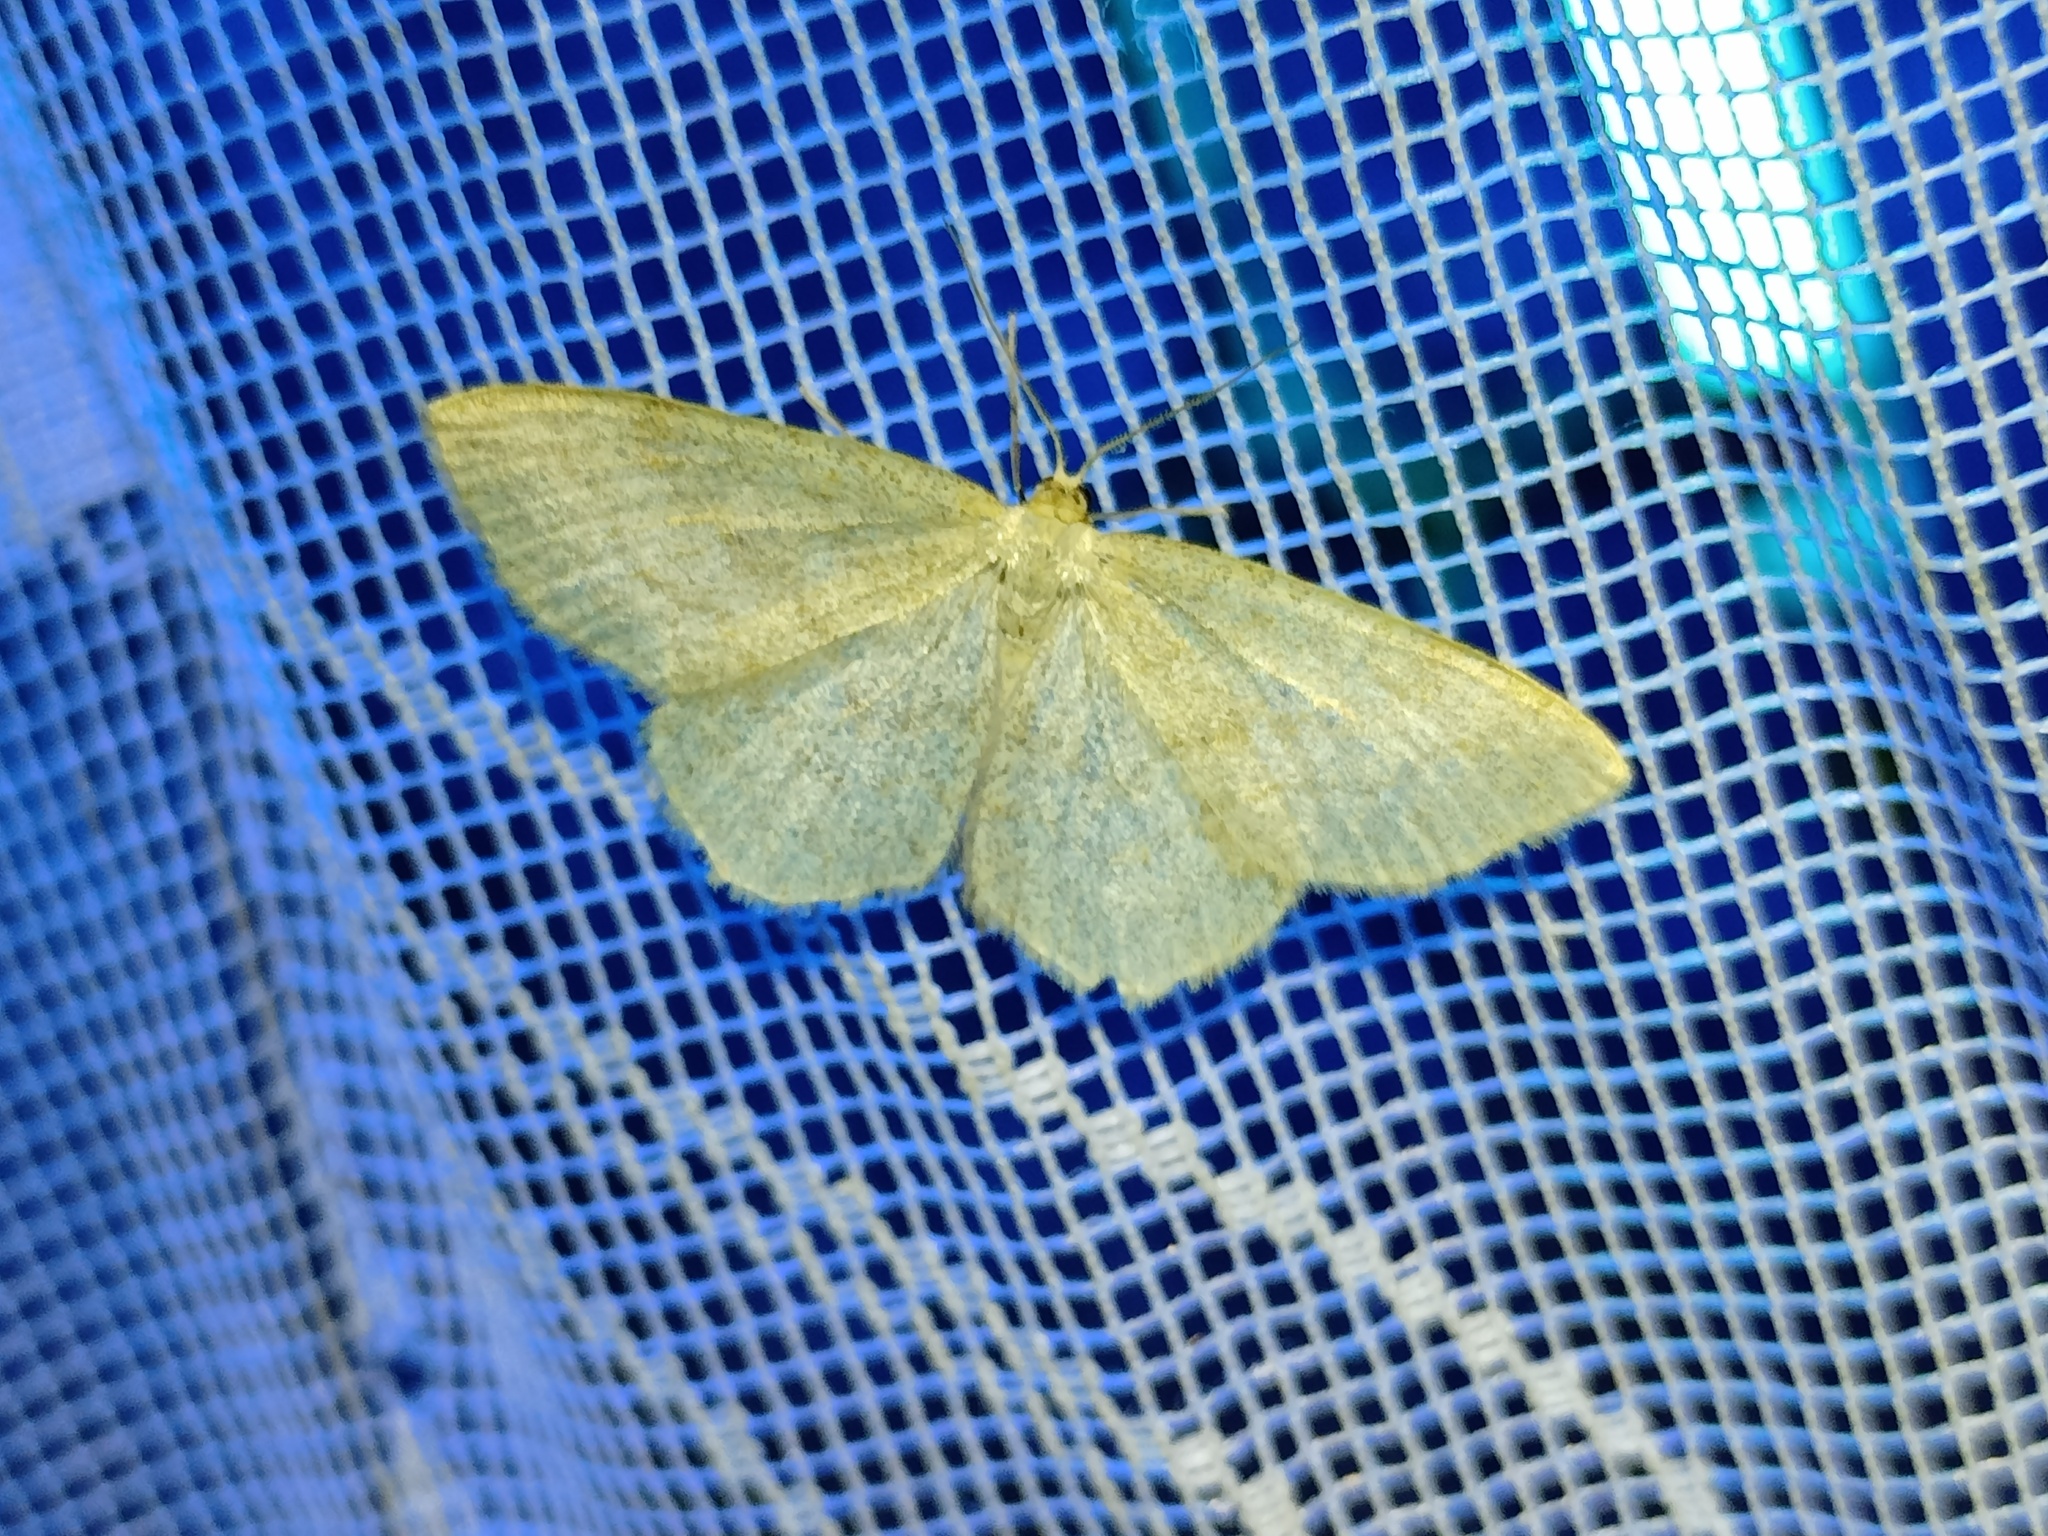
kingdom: Animalia
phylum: Arthropoda
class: Insecta
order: Lepidoptera
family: Geometridae
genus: Scopula
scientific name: Scopula ternata
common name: Smoky wave
